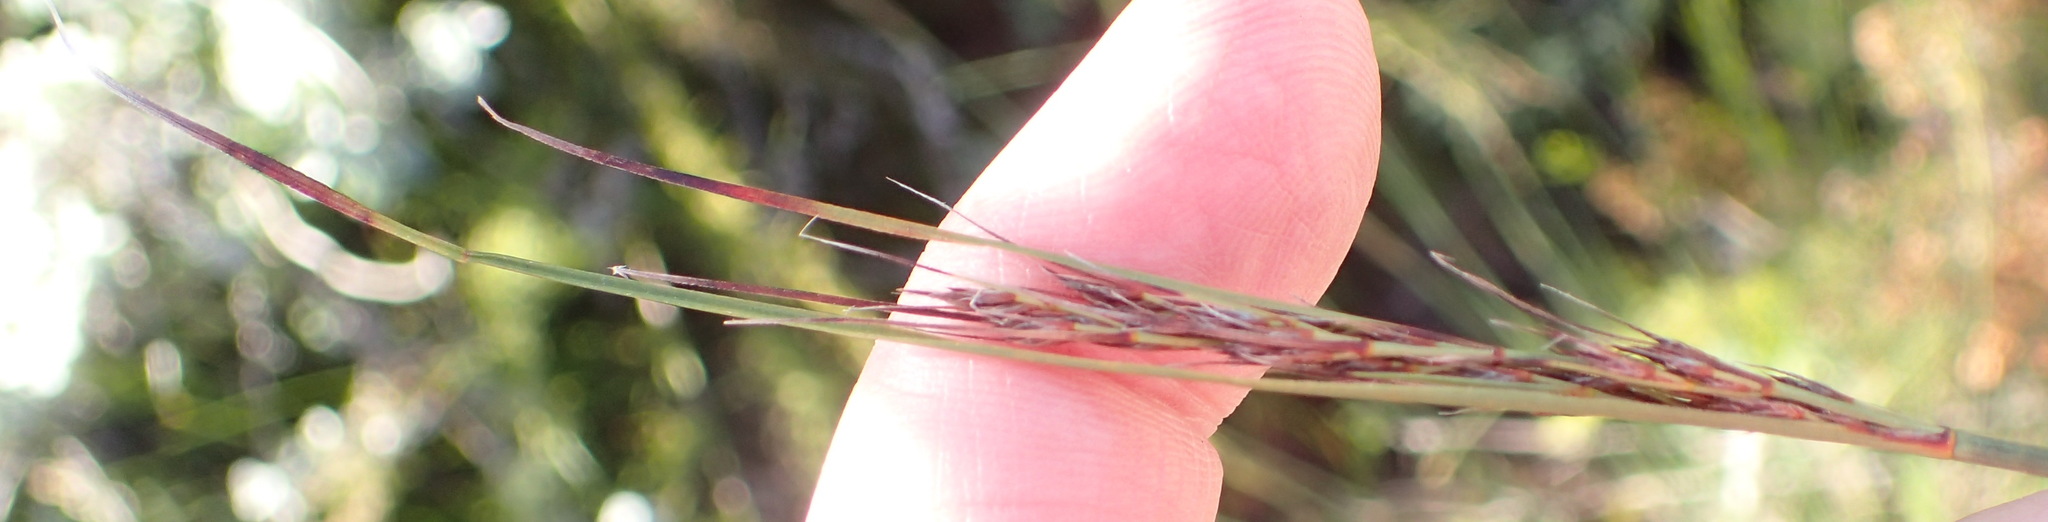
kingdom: Plantae
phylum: Tracheophyta
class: Liliopsida
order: Poales
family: Cyperaceae
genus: Schoenus
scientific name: Schoenus graciliculmis
